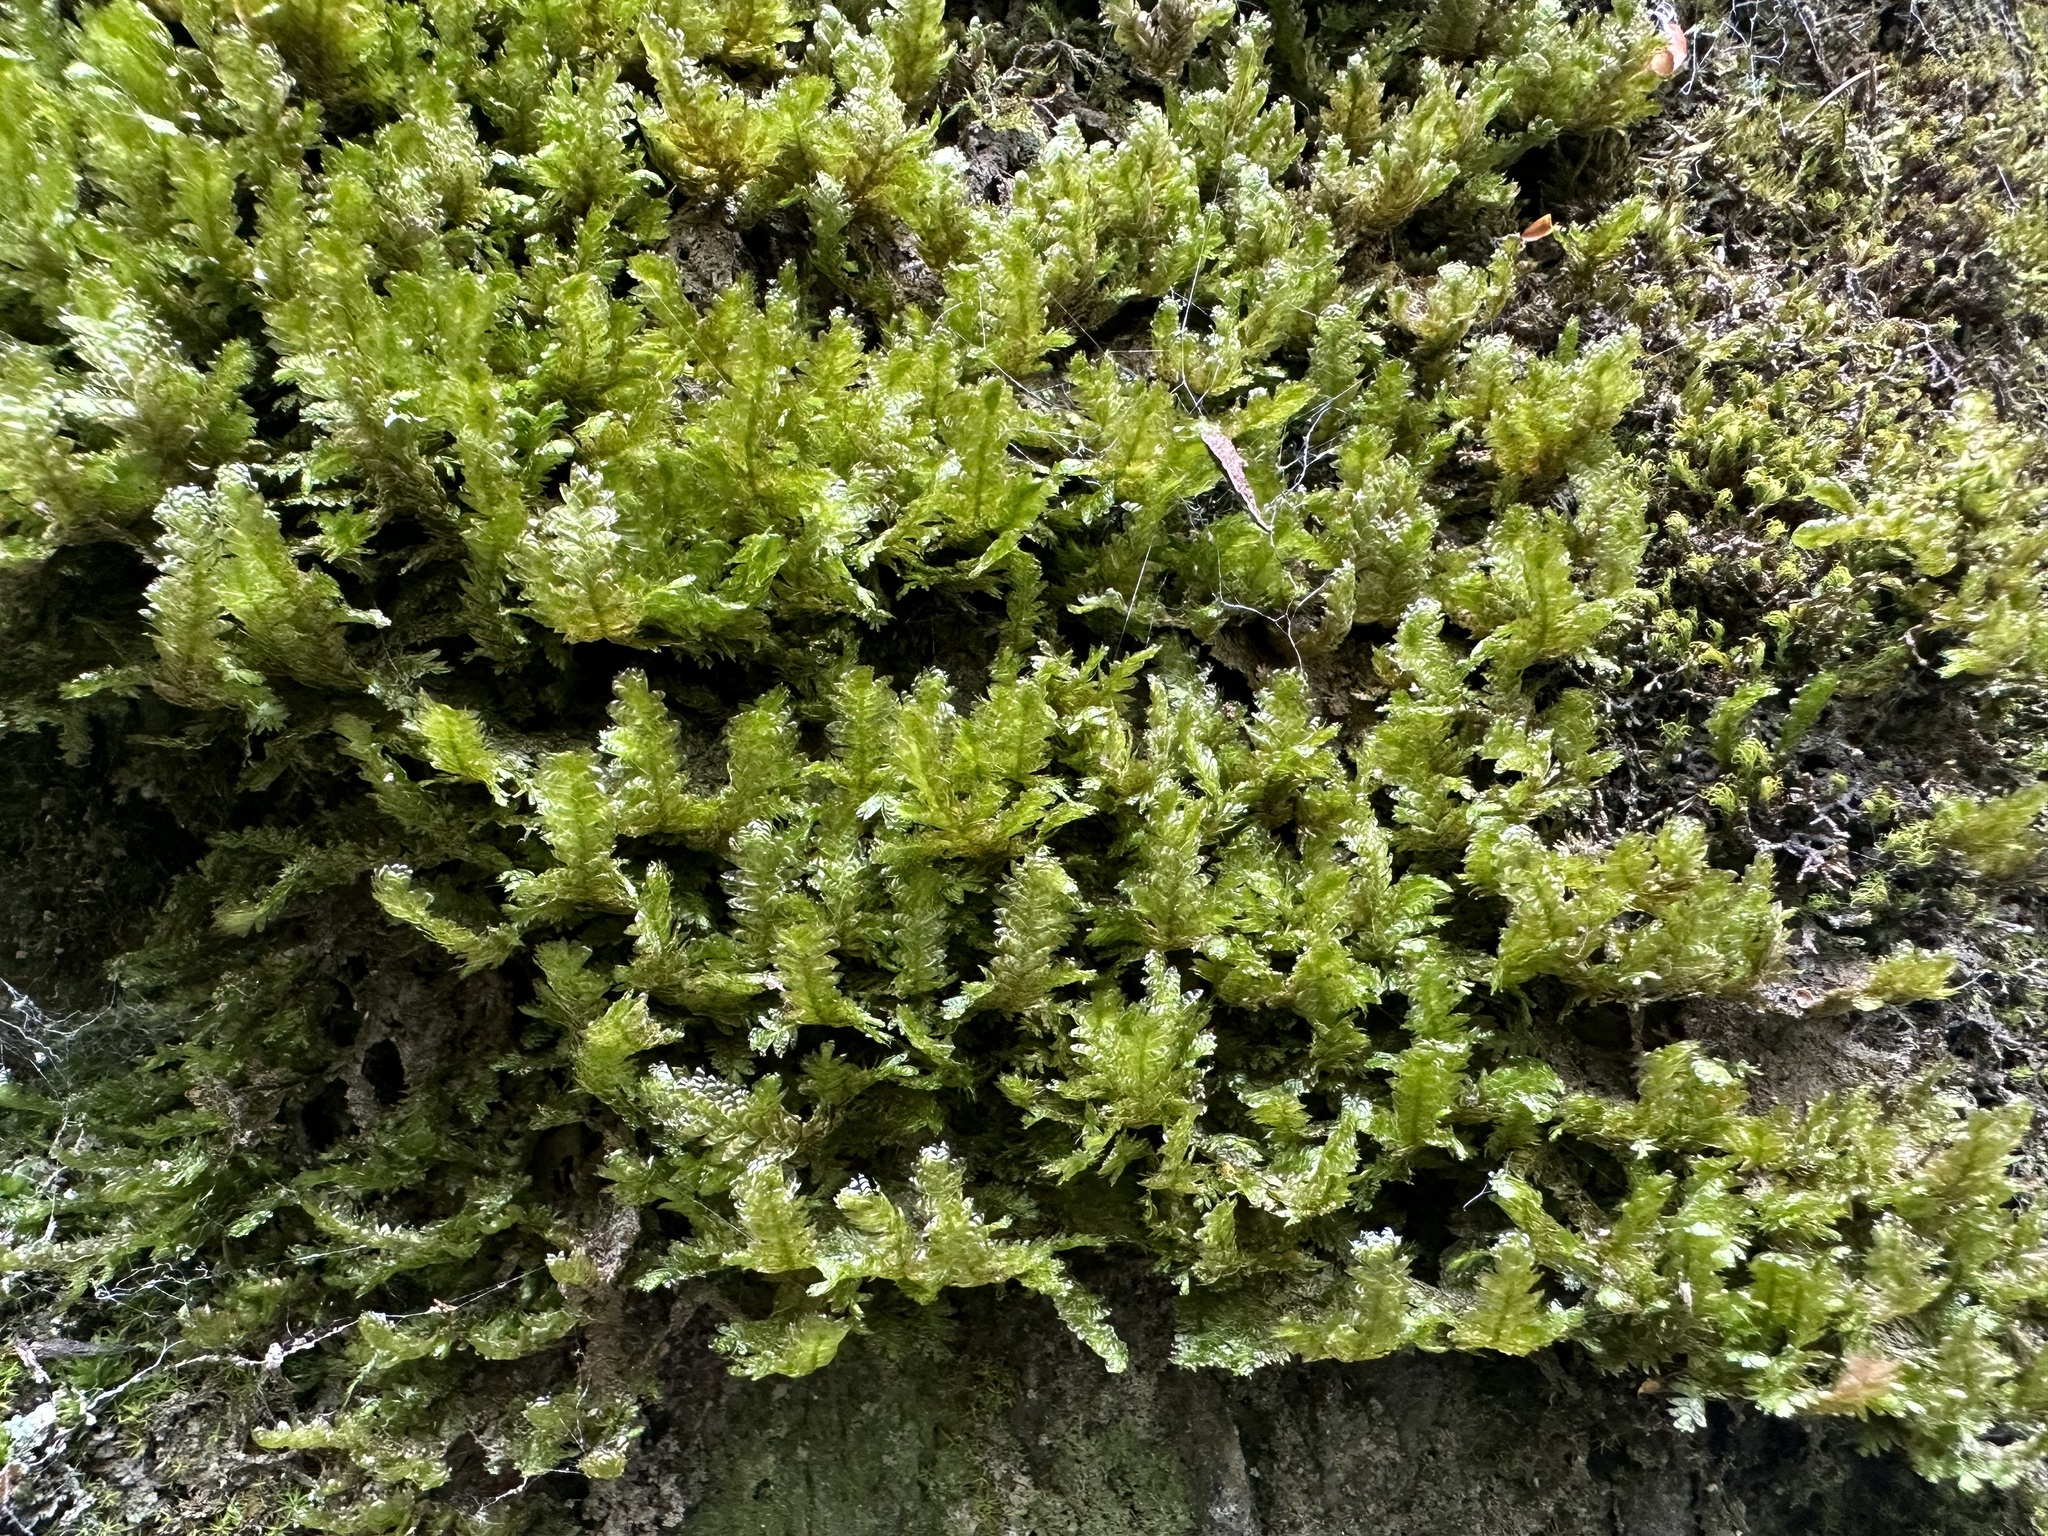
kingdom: Plantae
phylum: Bryophyta
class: Bryopsida
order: Hypnales
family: Neckeraceae
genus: Exsertotheca
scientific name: Exsertotheca crispa
